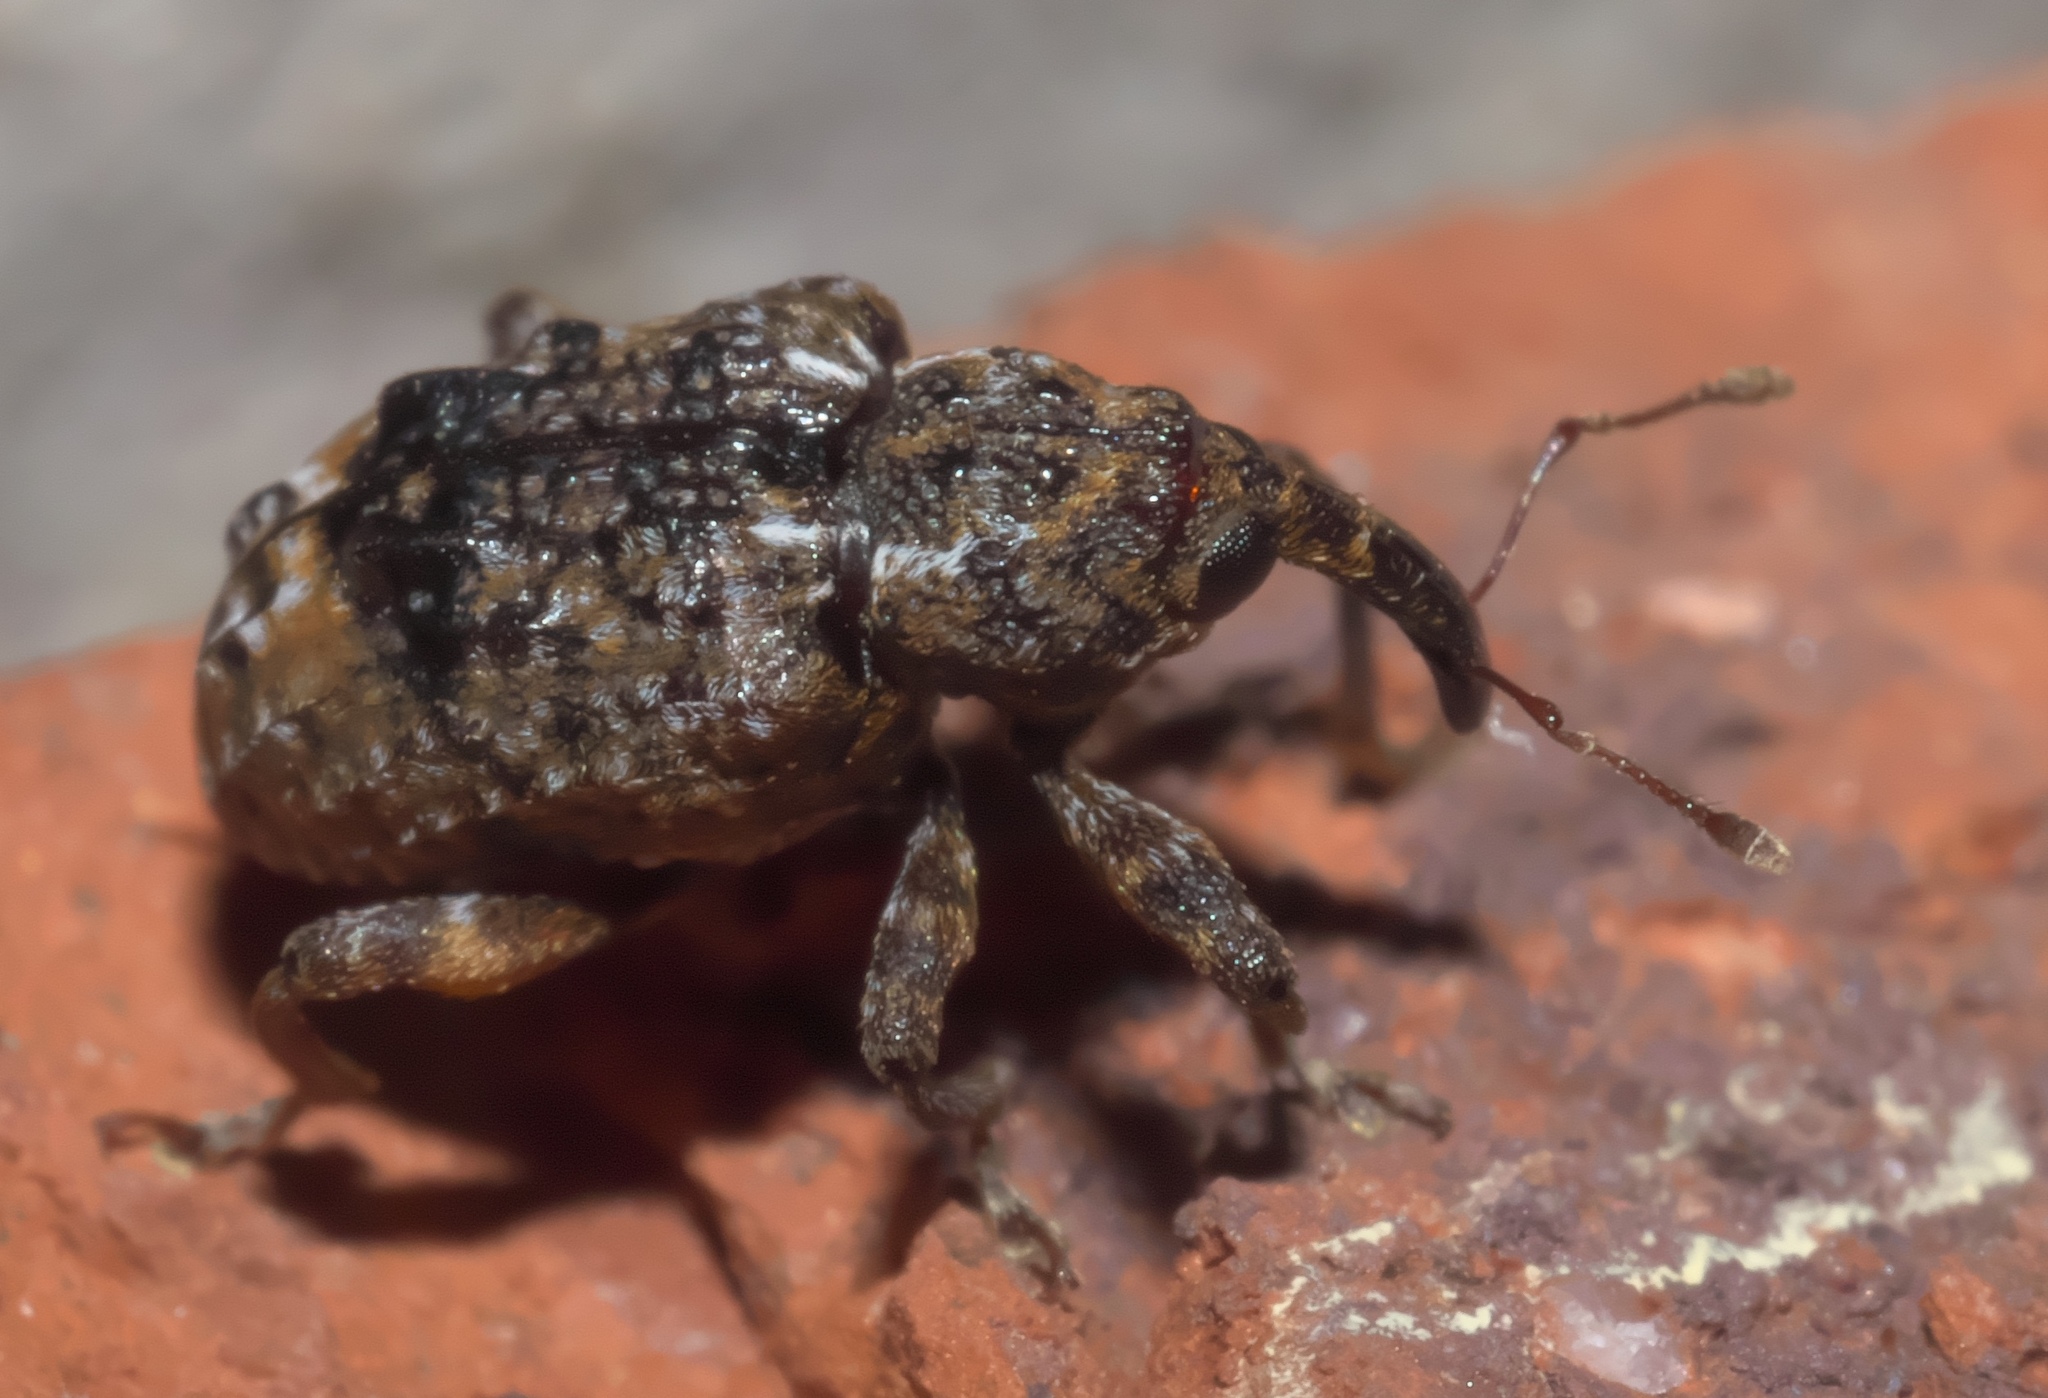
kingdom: Animalia
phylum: Arthropoda
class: Insecta
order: Coleoptera
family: Curculionidae
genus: Conotrachelus
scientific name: Conotrachelus nenuphar
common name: Plum curculio
